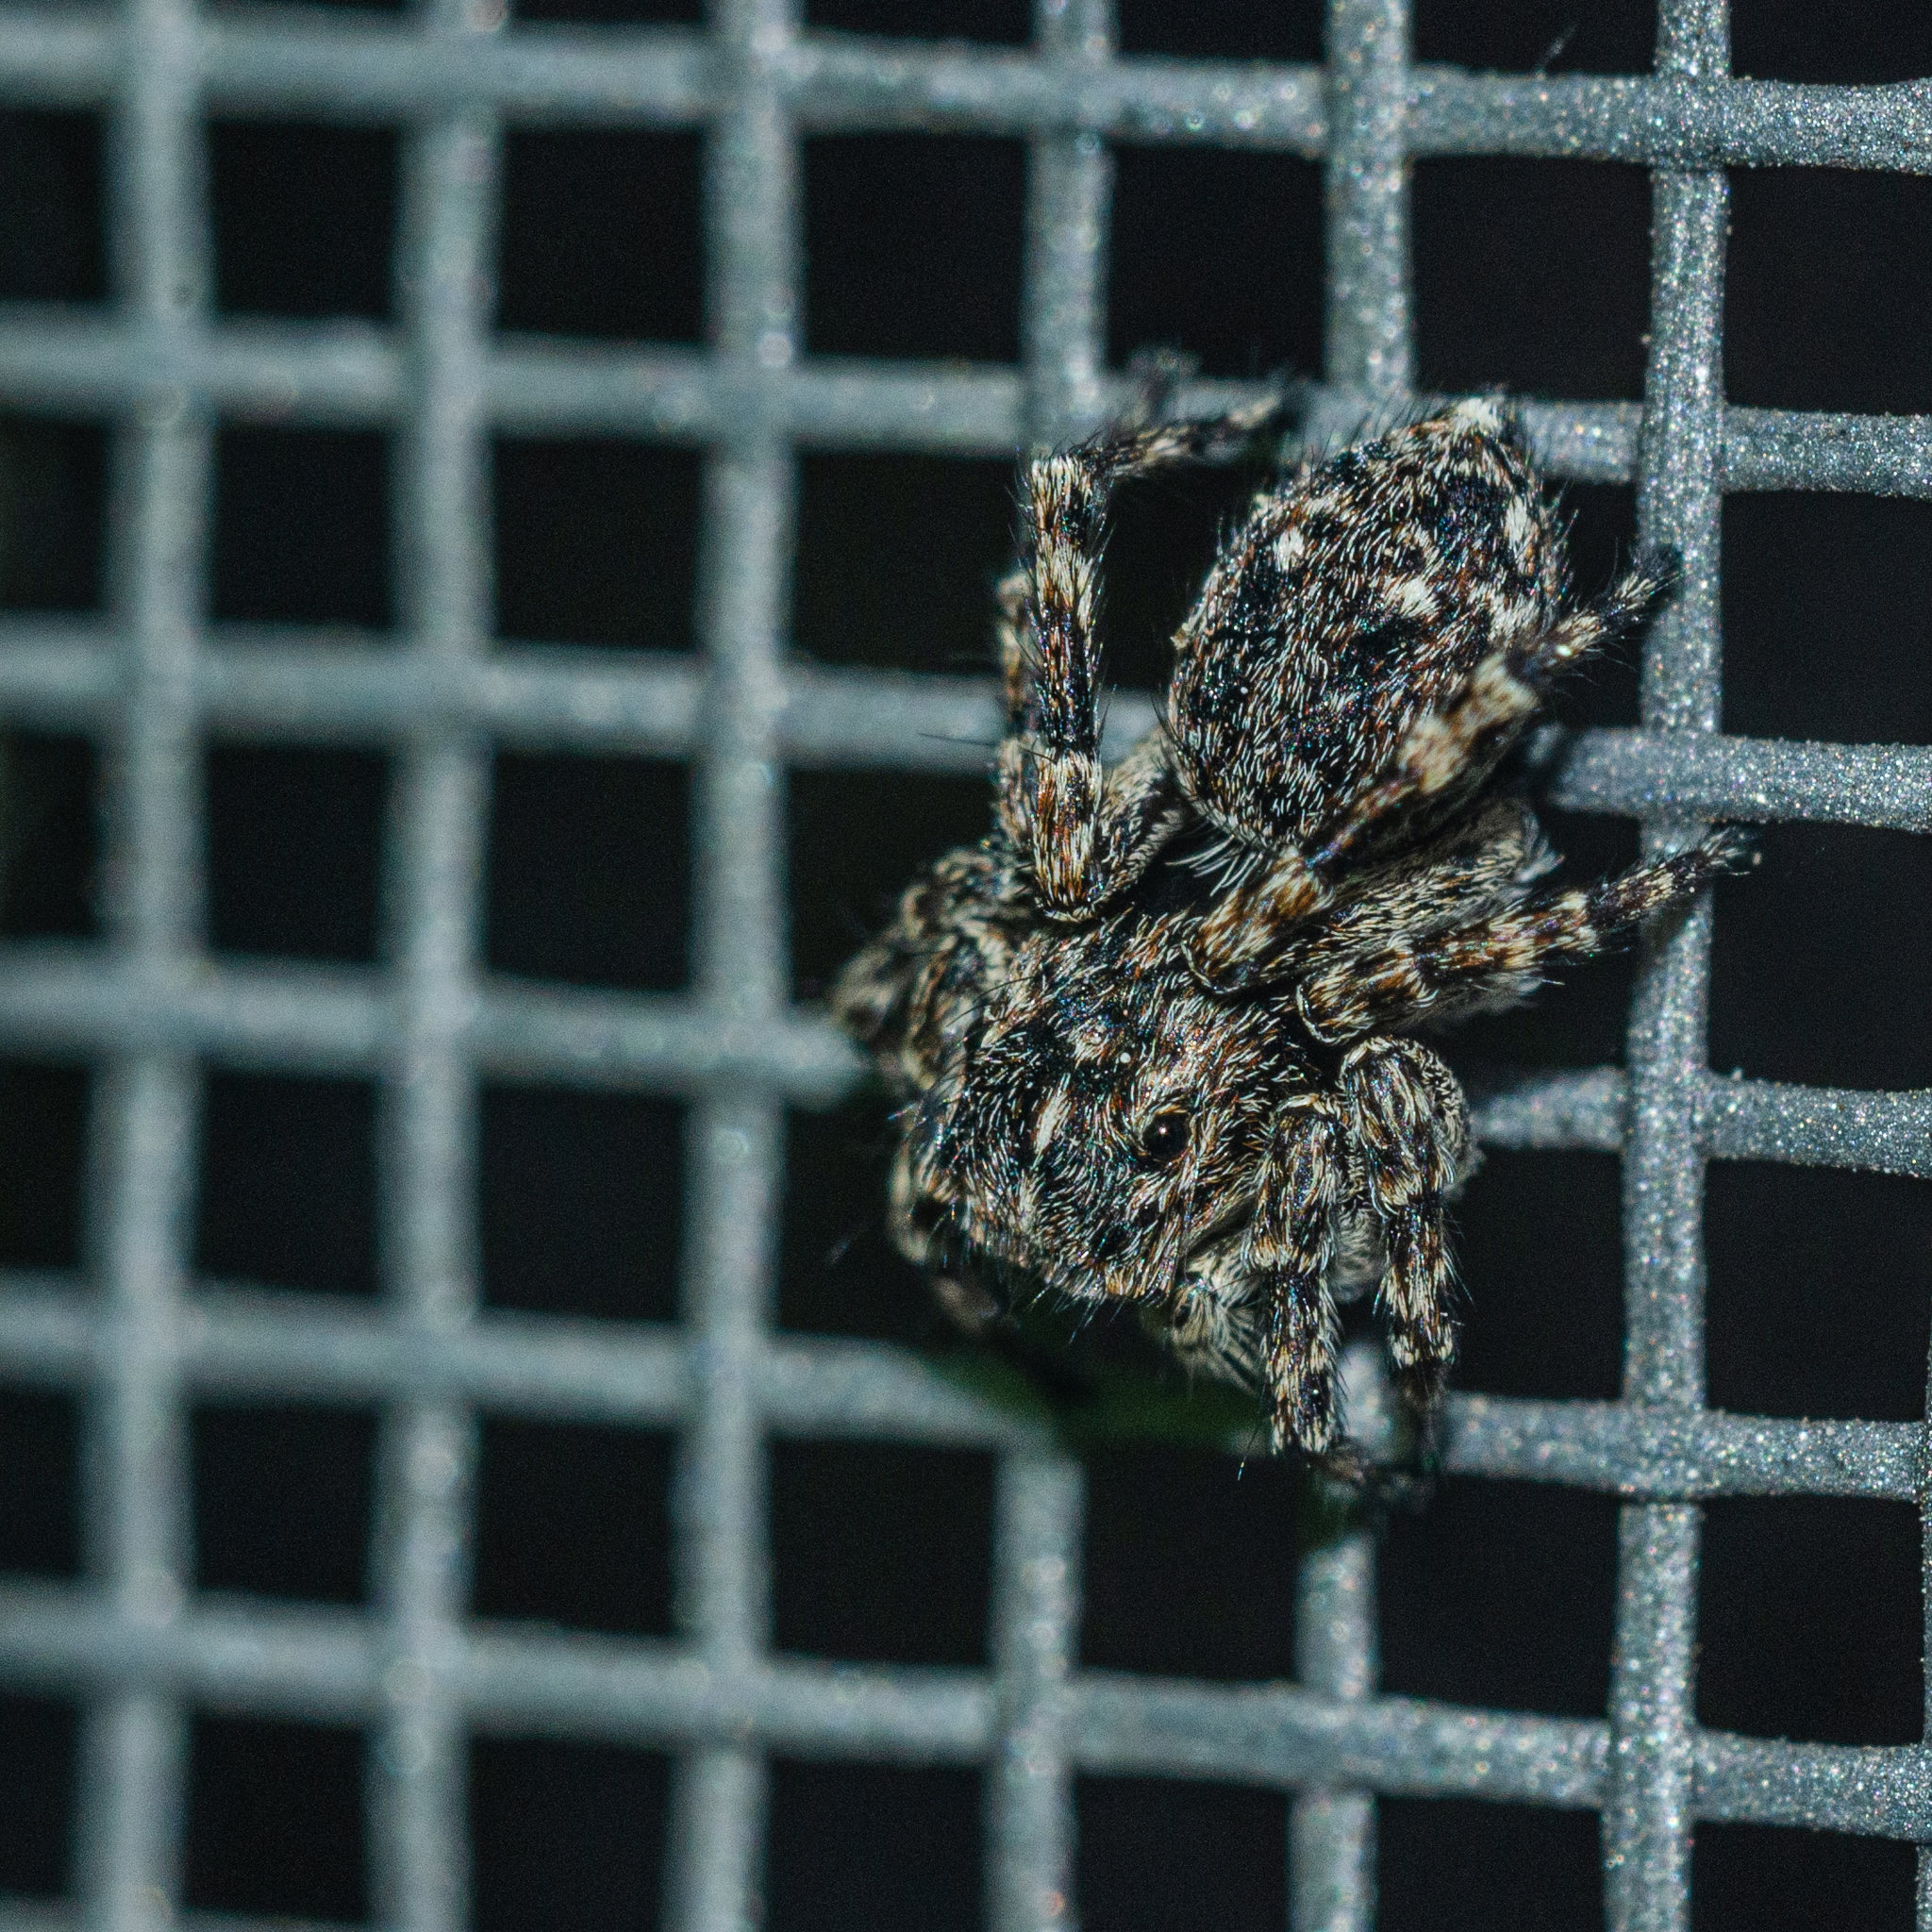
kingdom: Animalia
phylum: Arthropoda
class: Arachnida
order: Araneae
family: Salticidae
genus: Attulus
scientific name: Attulus pubescens
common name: Jumping spider
